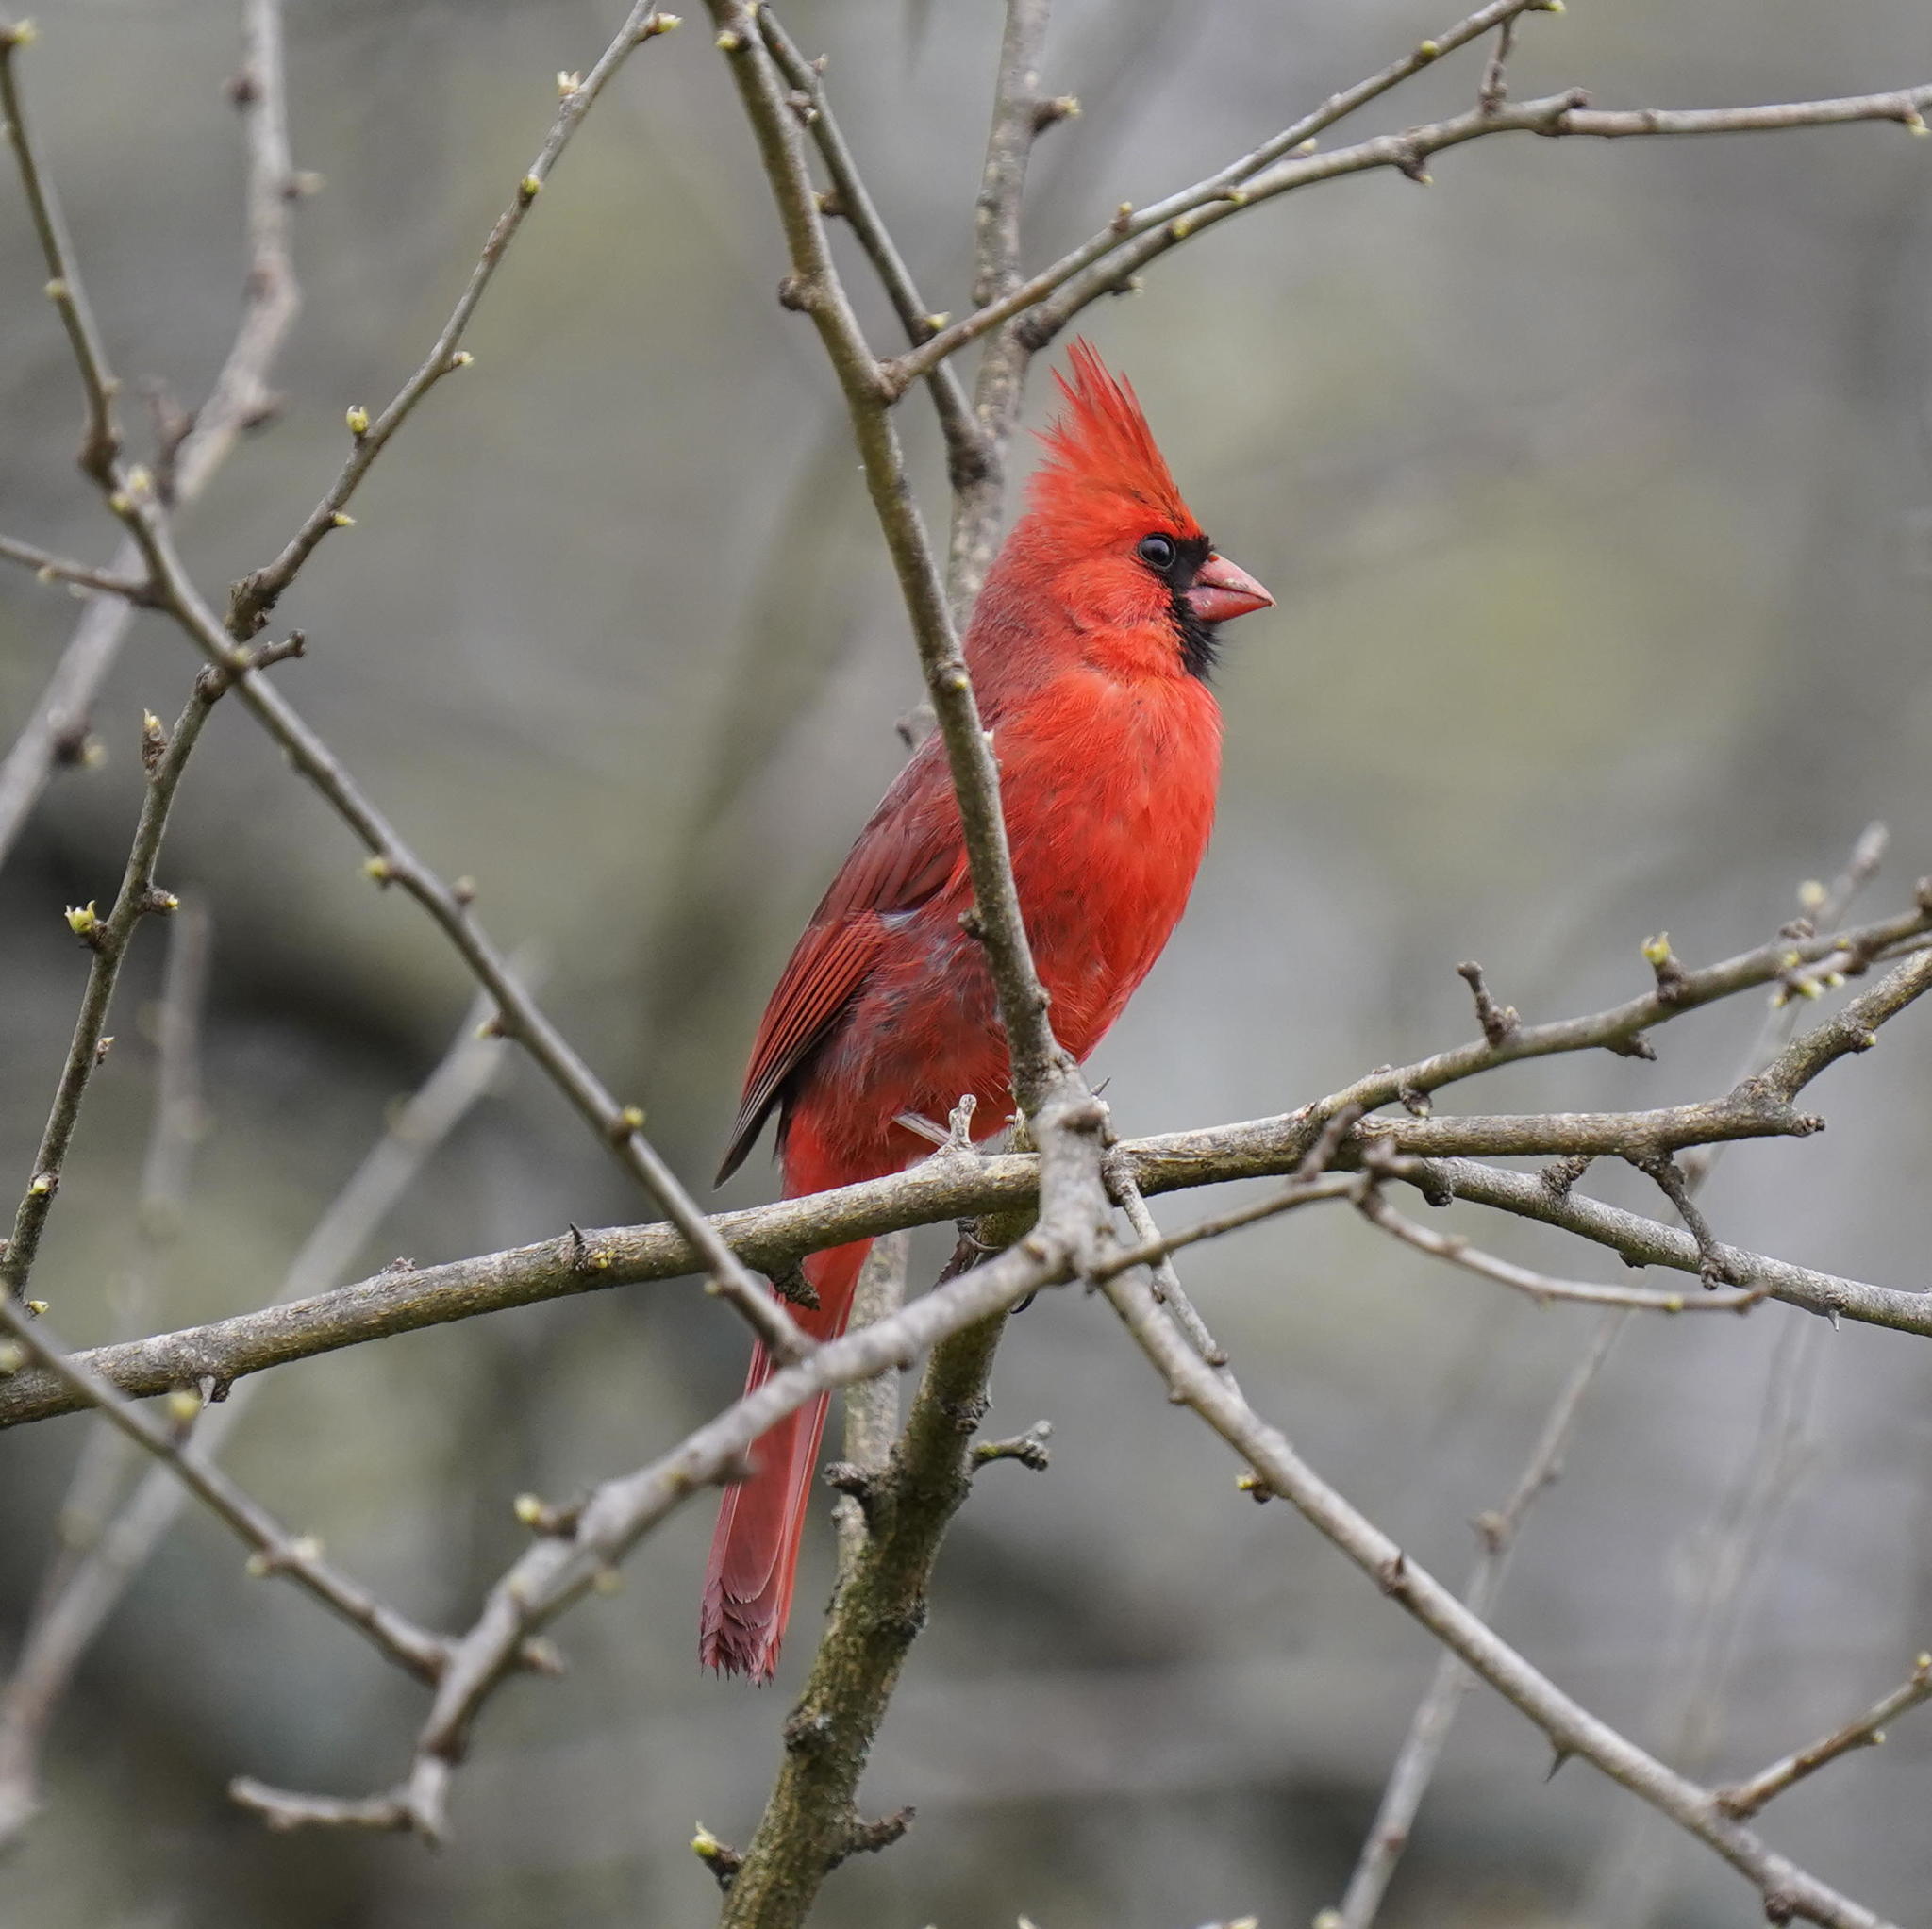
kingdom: Animalia
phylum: Chordata
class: Aves
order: Passeriformes
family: Cardinalidae
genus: Cardinalis
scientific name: Cardinalis cardinalis
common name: Northern cardinal
